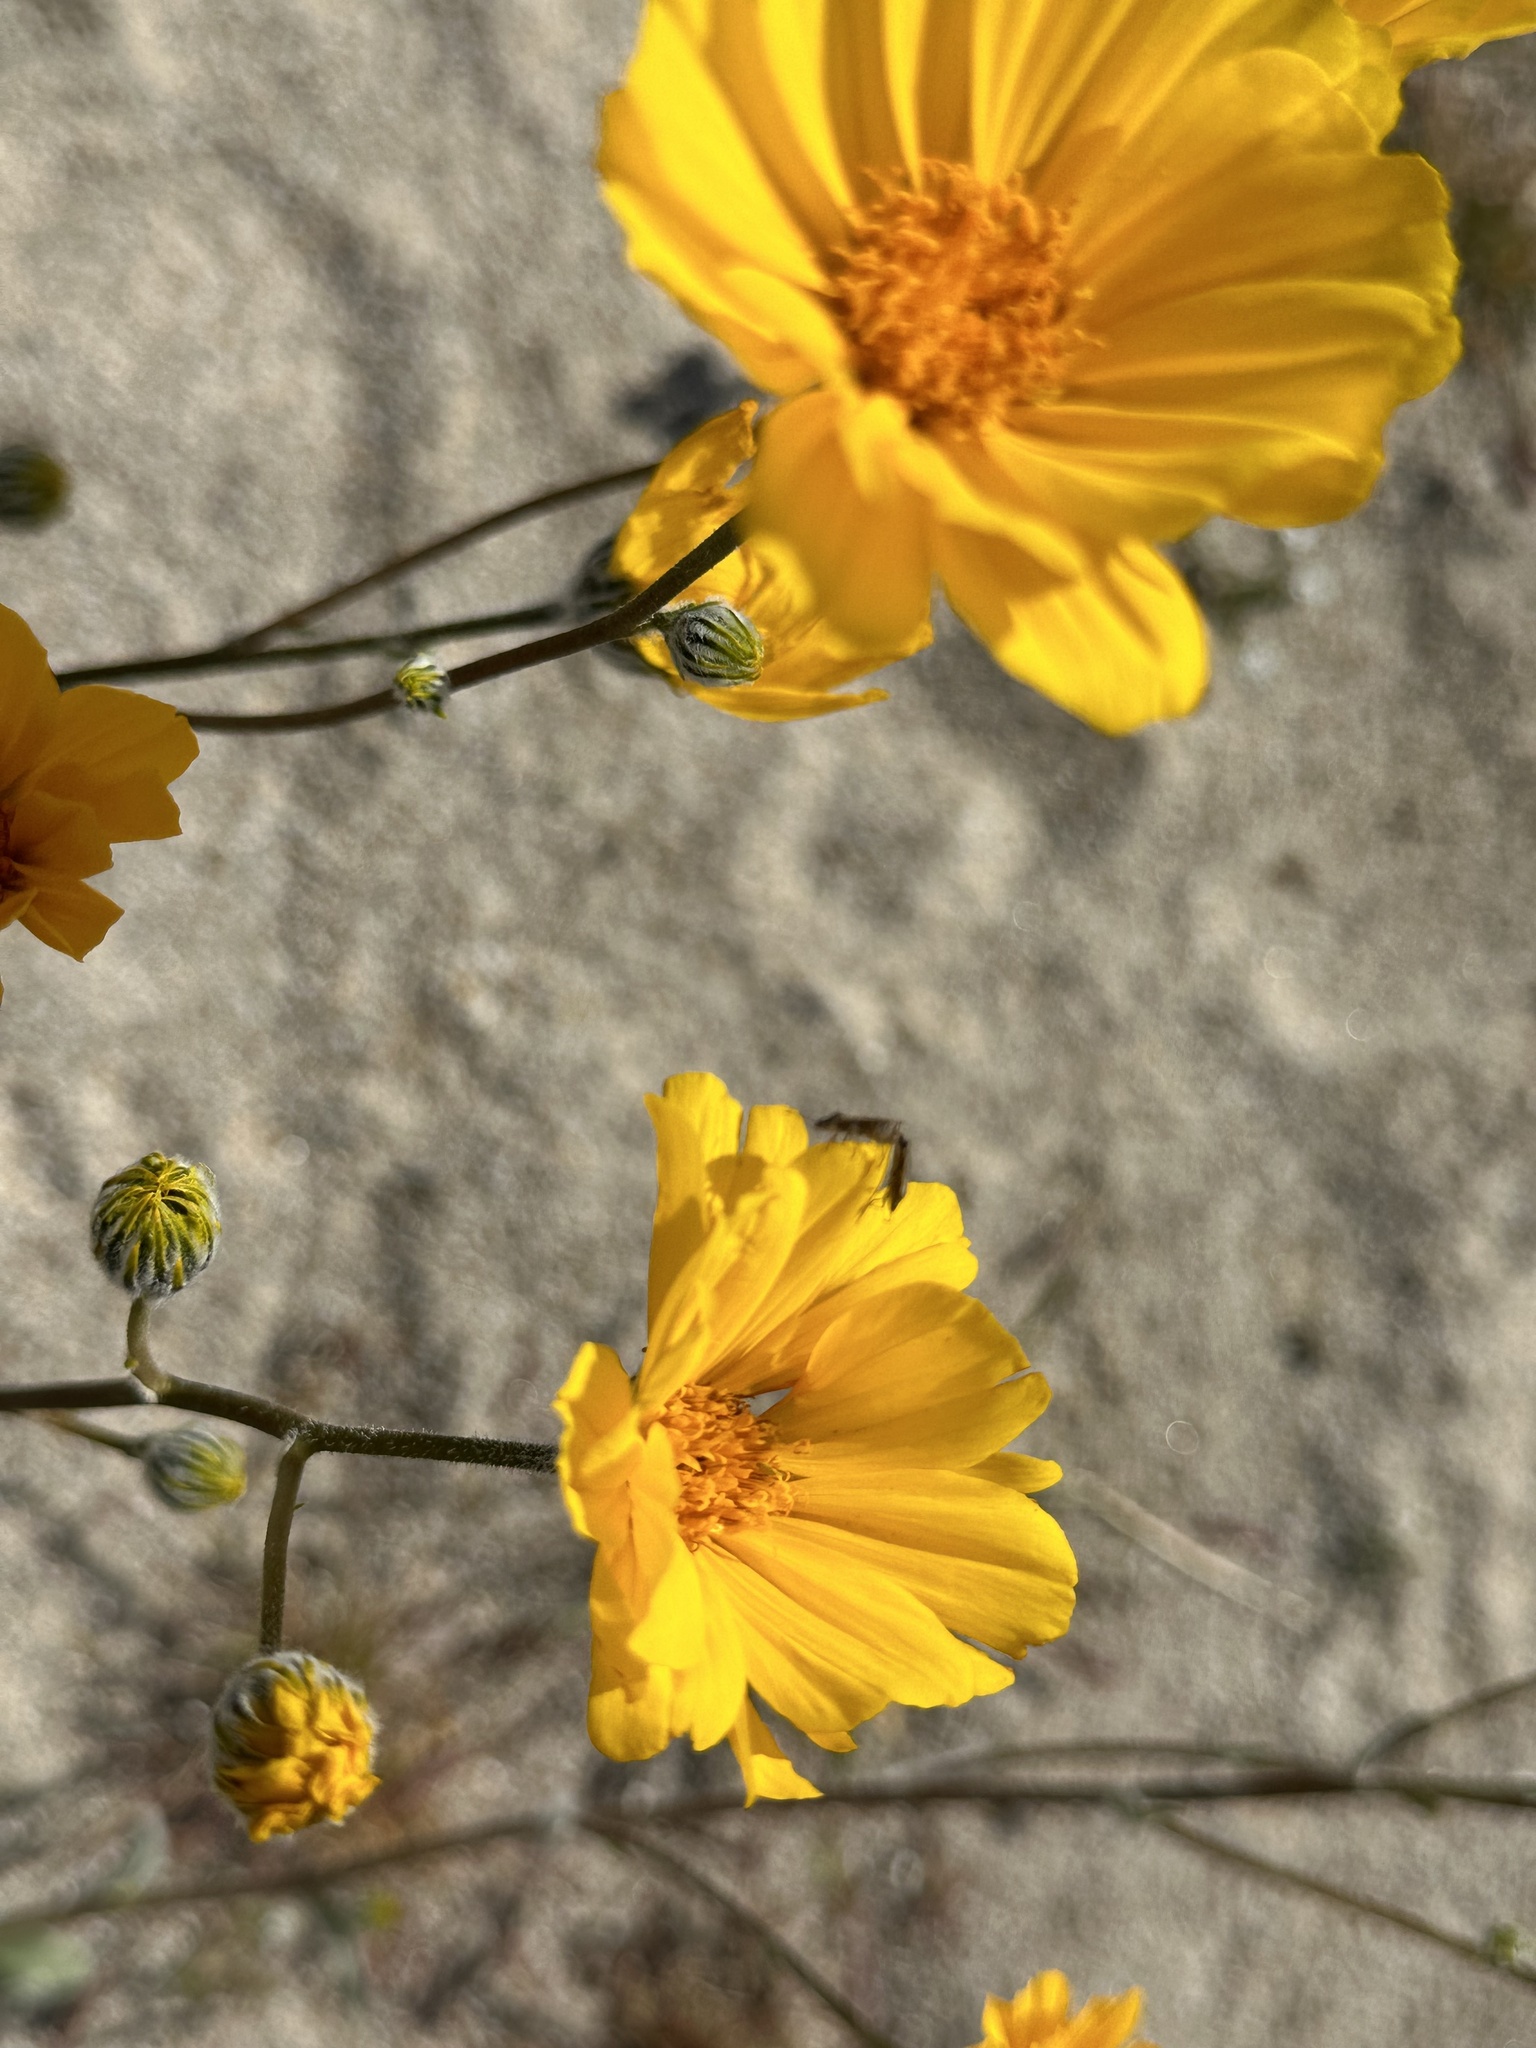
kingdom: Plantae
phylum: Tracheophyta
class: Magnoliopsida
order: Asterales
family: Asteraceae
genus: Geraea
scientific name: Geraea canescens
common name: Desert-gold
